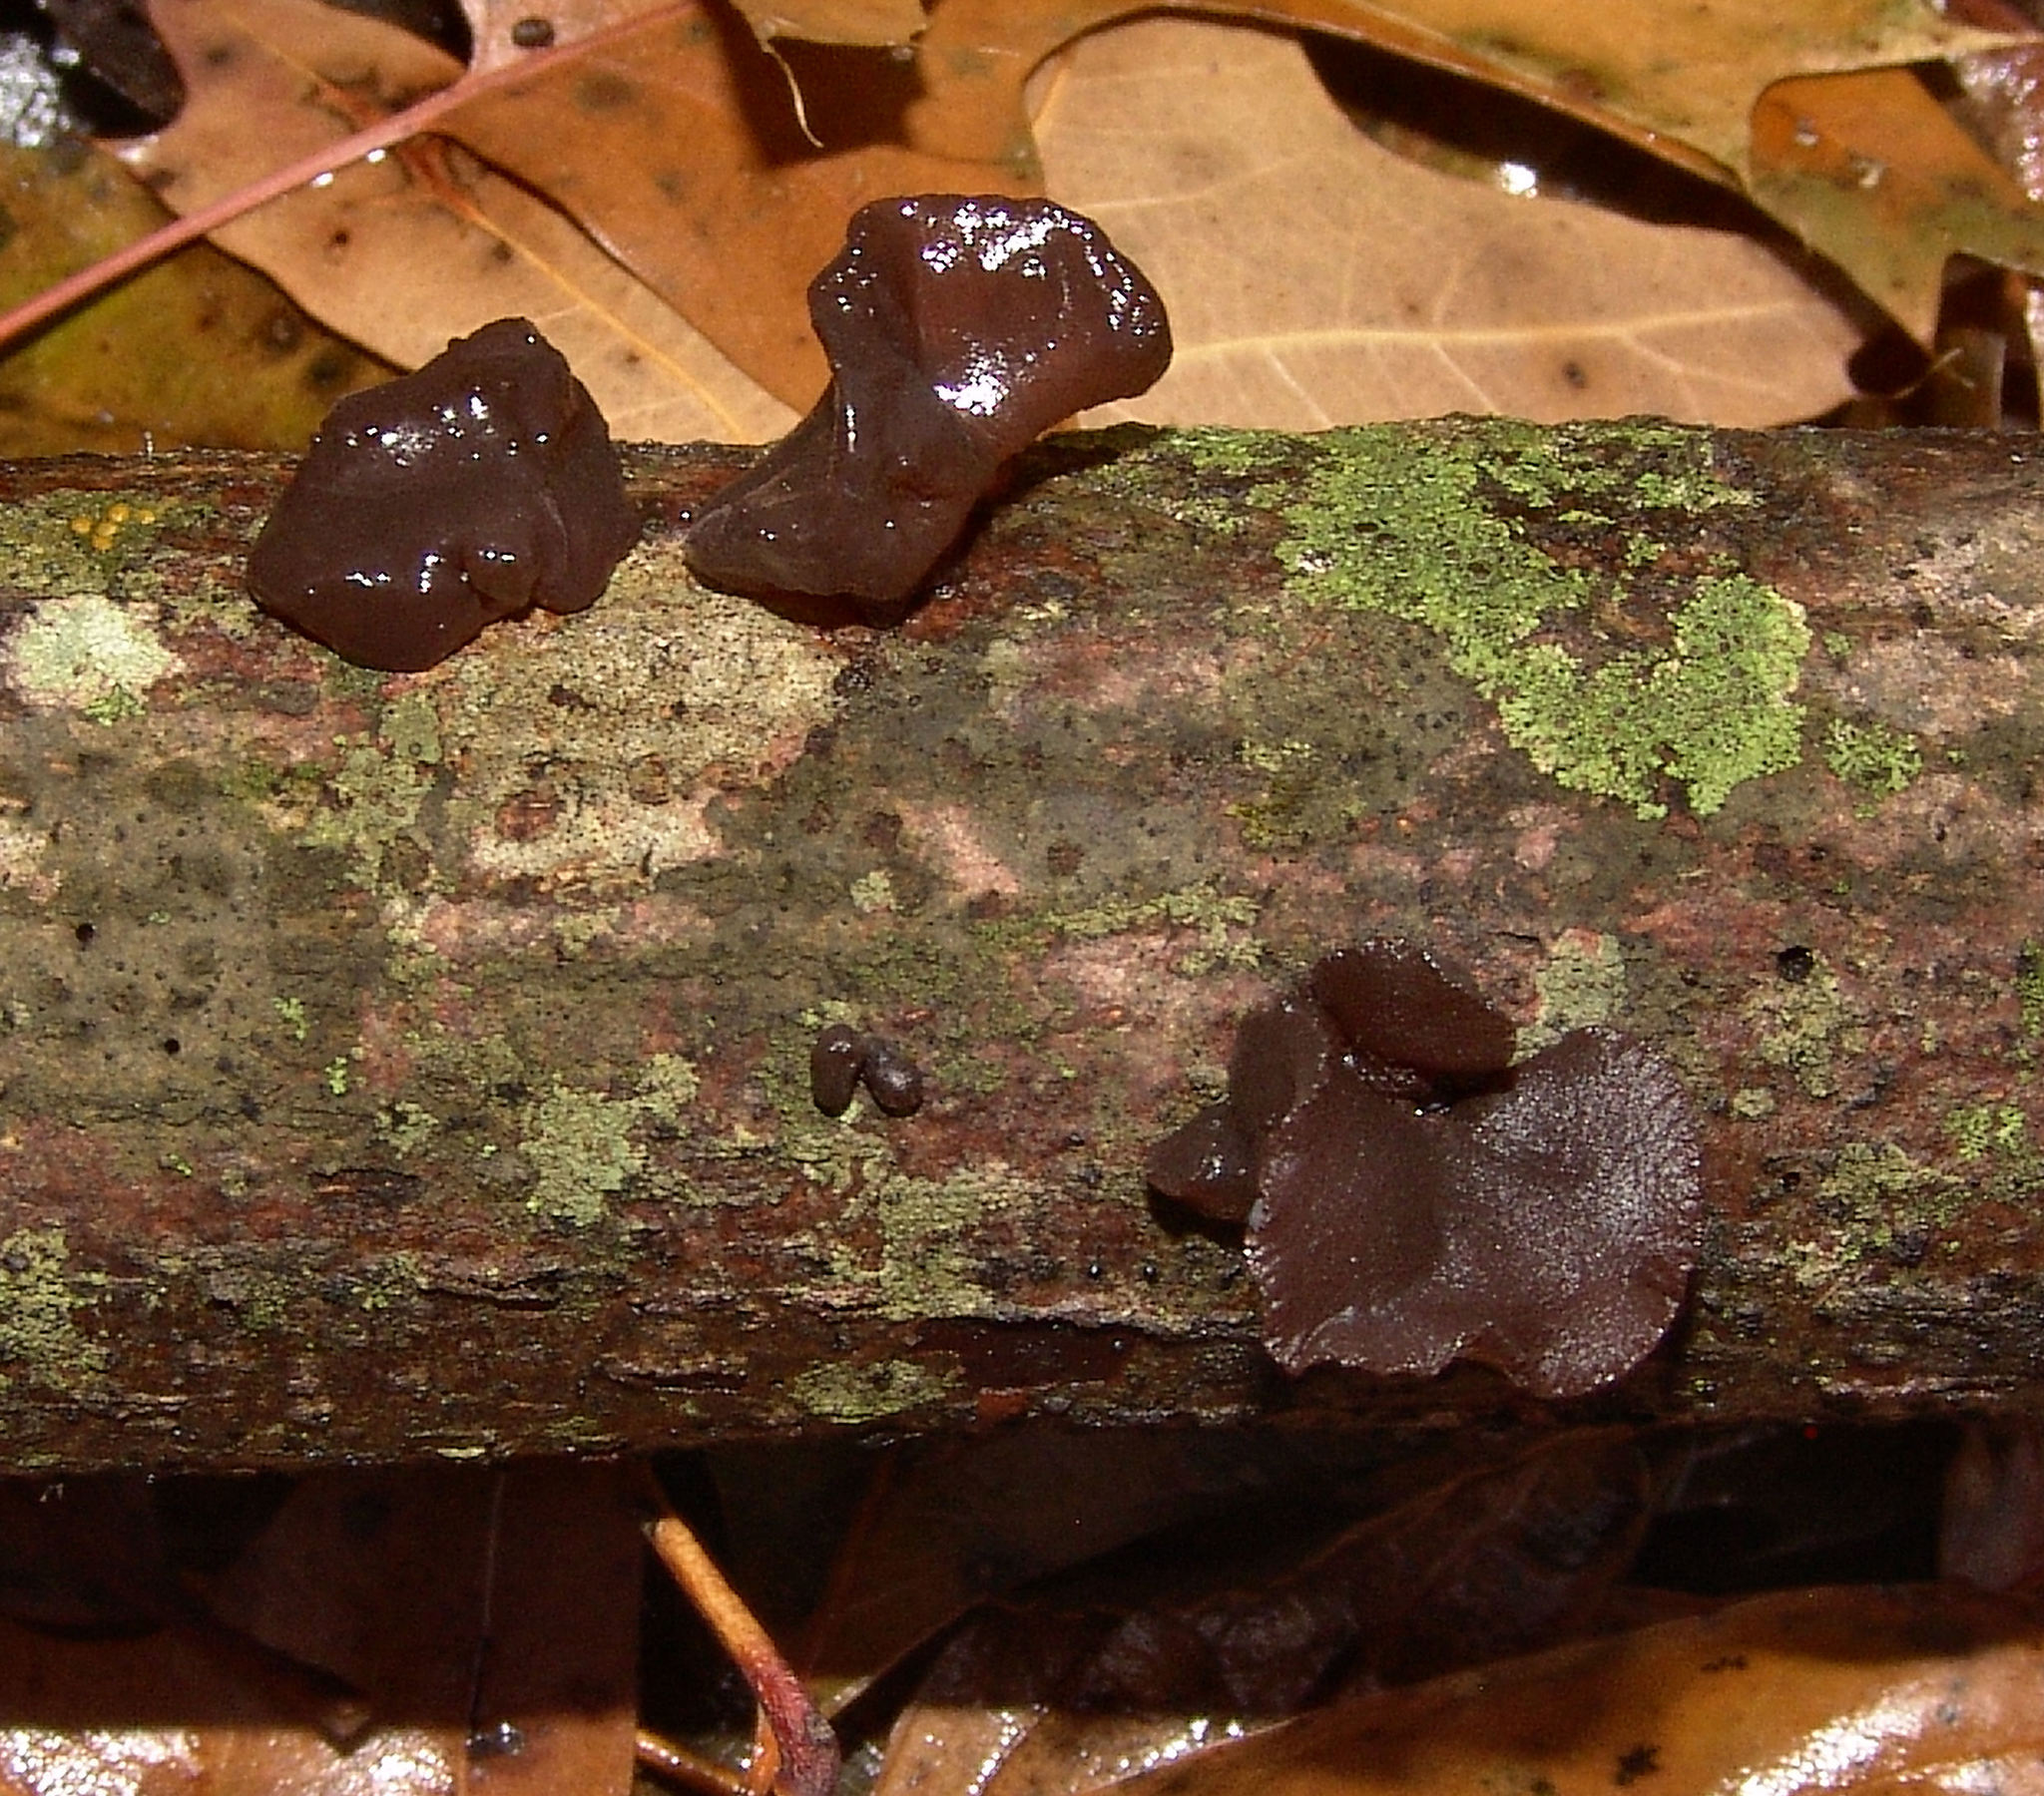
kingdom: Fungi
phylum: Basidiomycota
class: Agaricomycetes
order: Auriculariales
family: Auriculariaceae
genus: Exidia
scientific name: Exidia
